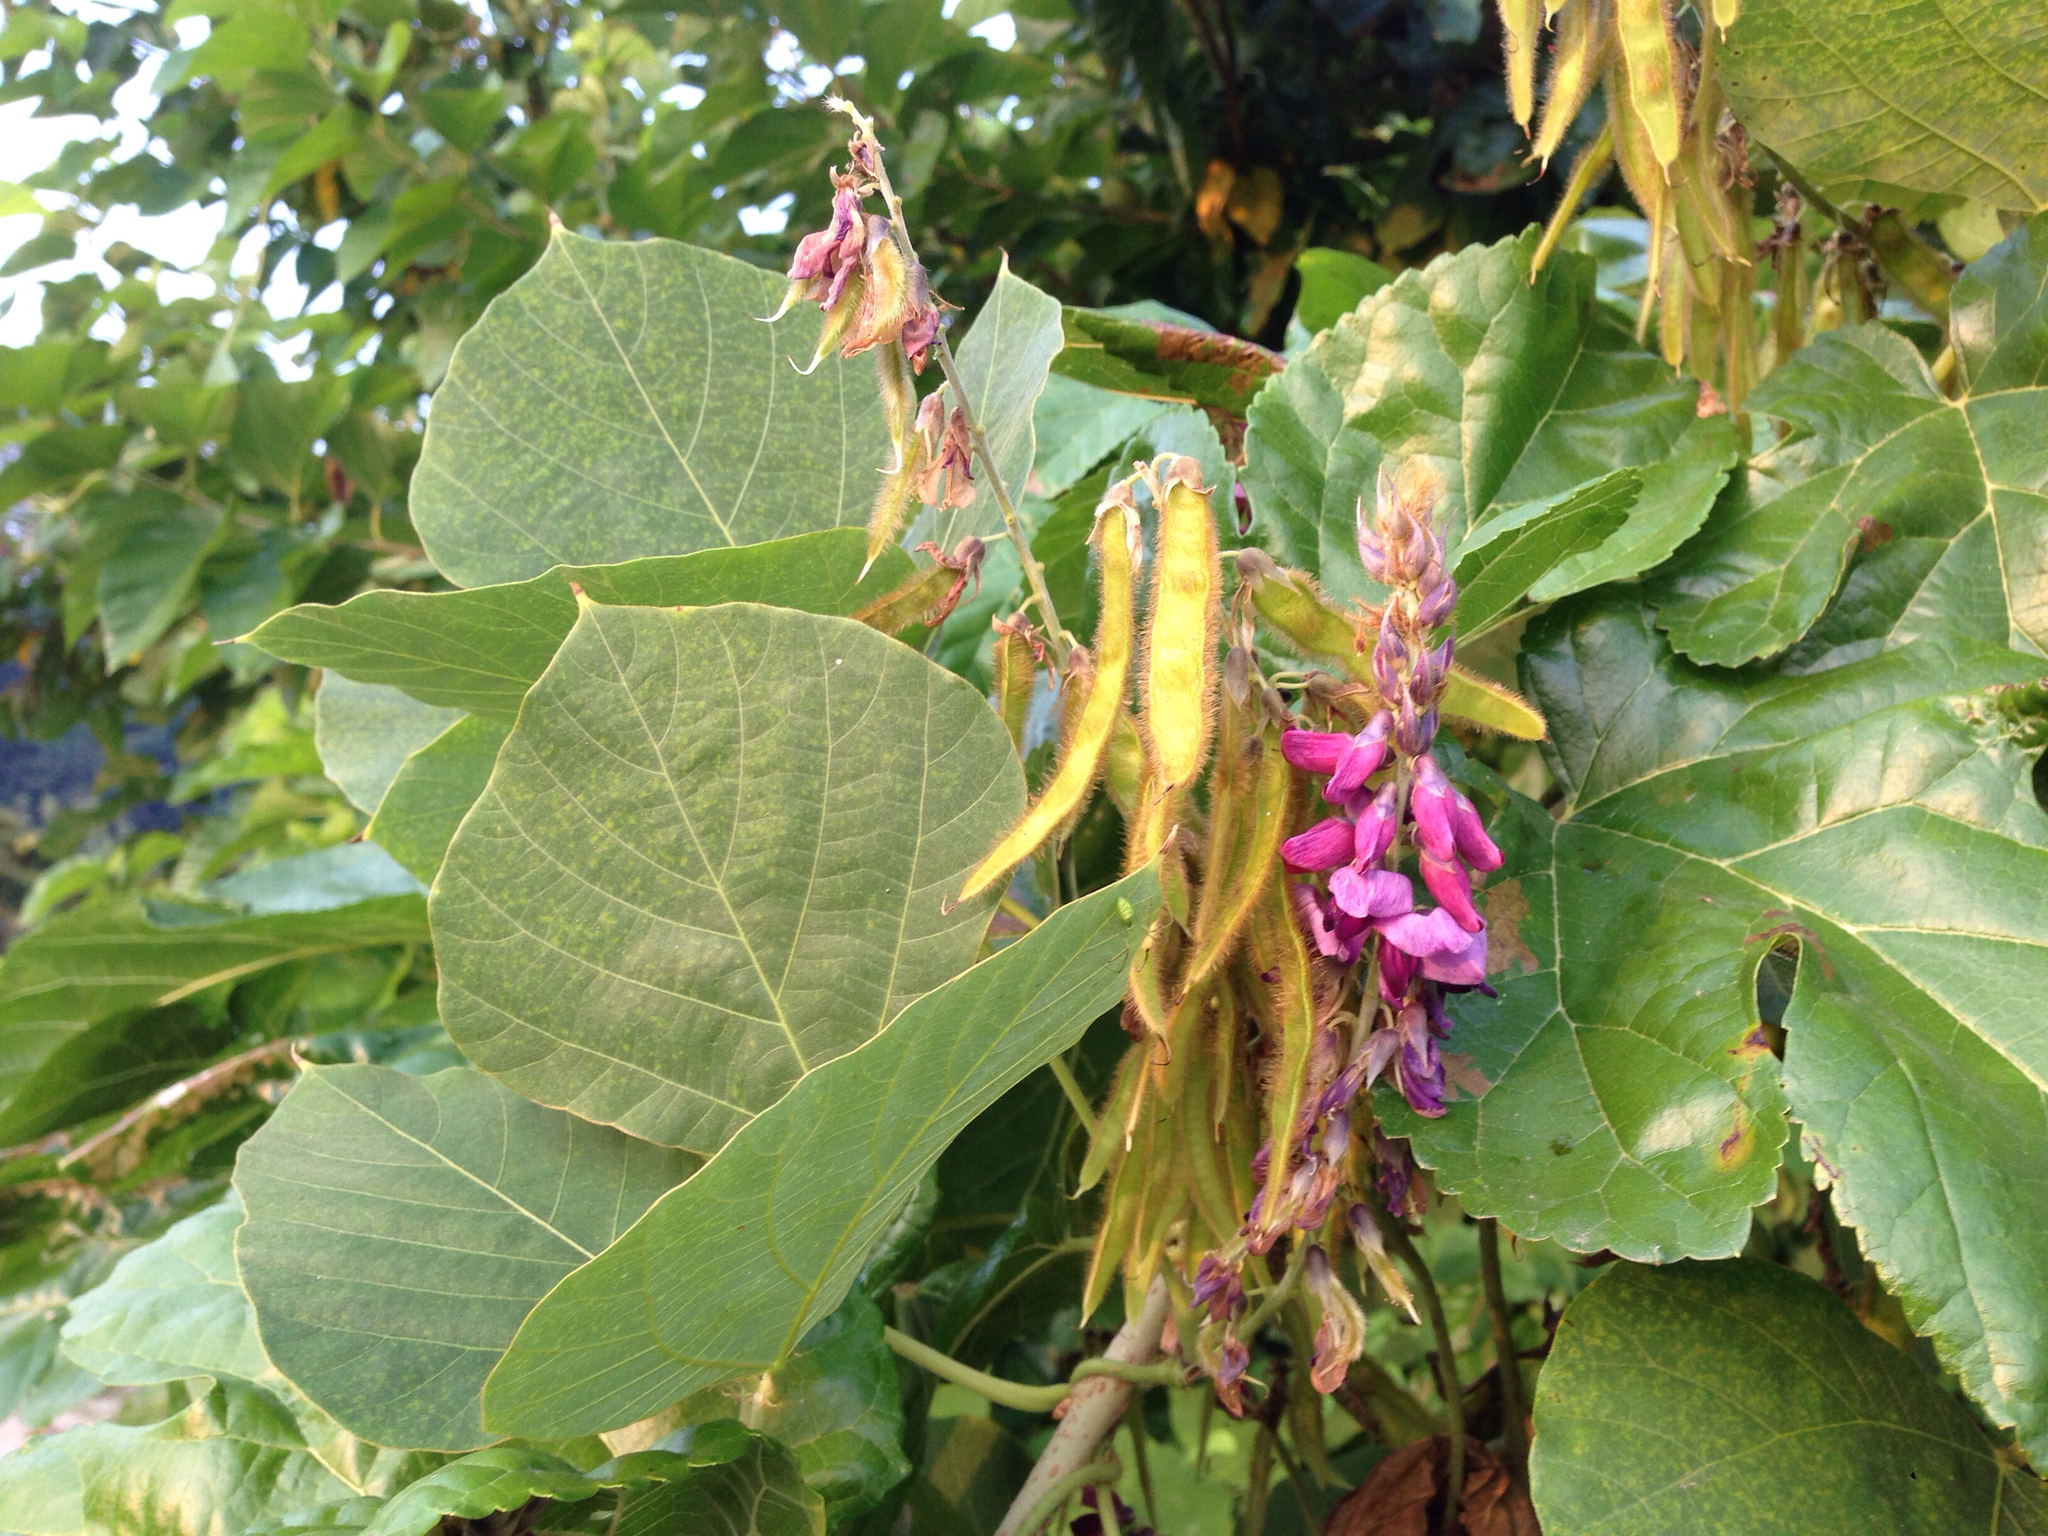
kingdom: Plantae
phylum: Tracheophyta
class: Magnoliopsida
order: Fabales
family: Fabaceae
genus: Pueraria
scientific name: Pueraria montana
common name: Kudzu
